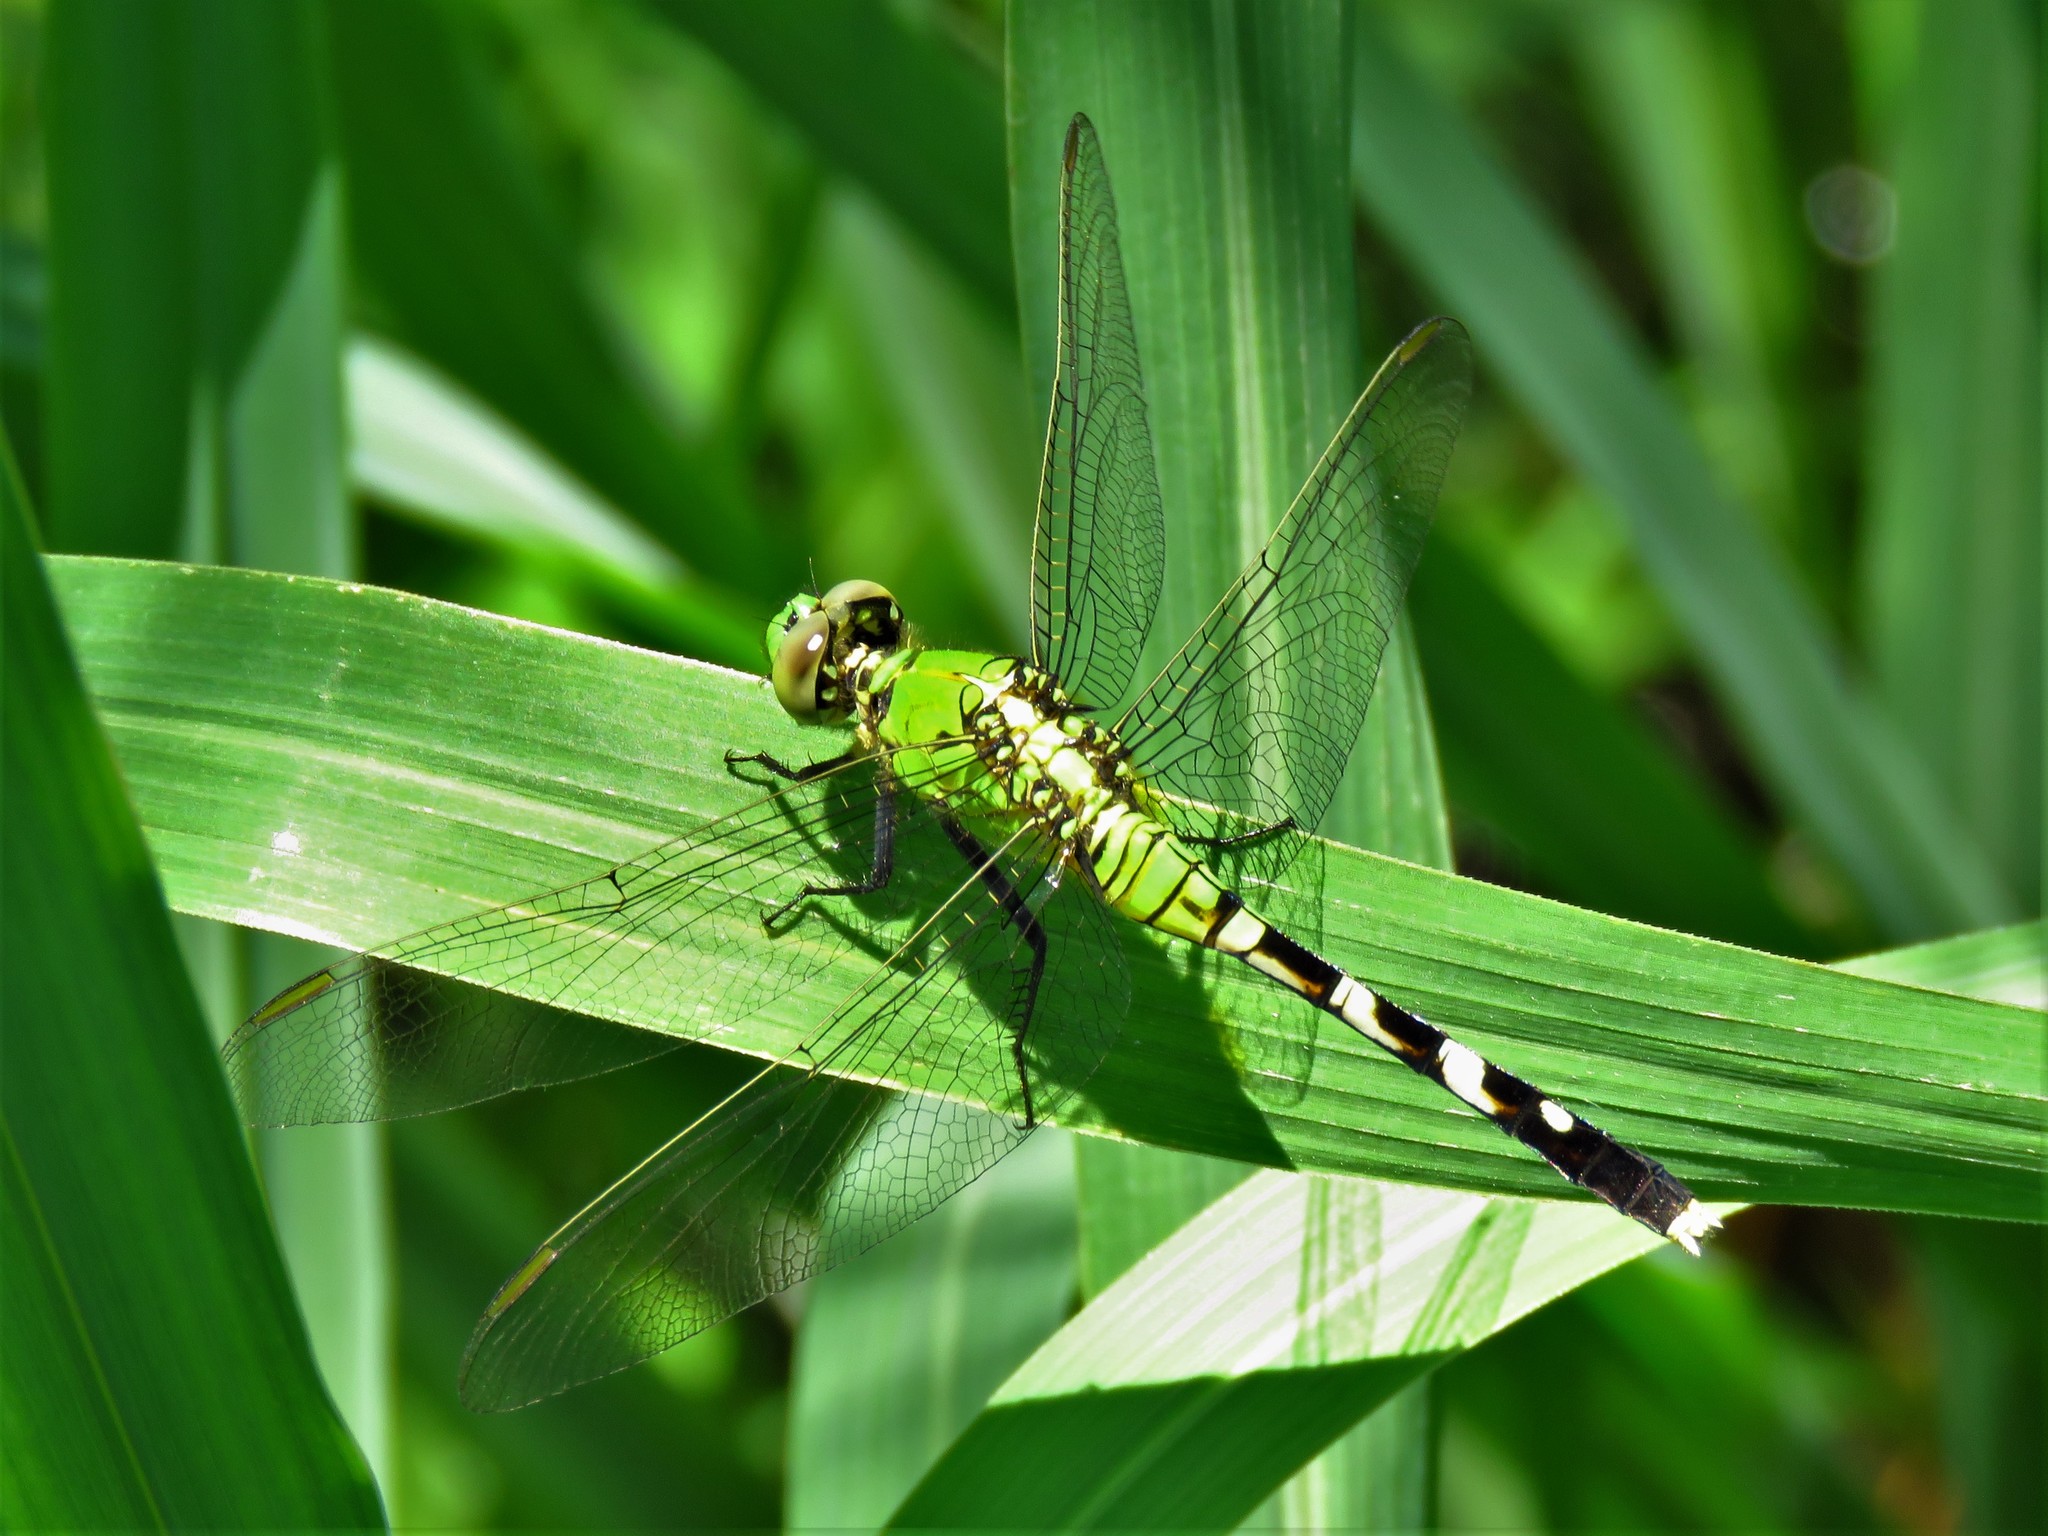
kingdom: Animalia
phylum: Arthropoda
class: Insecta
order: Odonata
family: Libellulidae
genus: Erythemis
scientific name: Erythemis simplicicollis
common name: Eastern pondhawk
